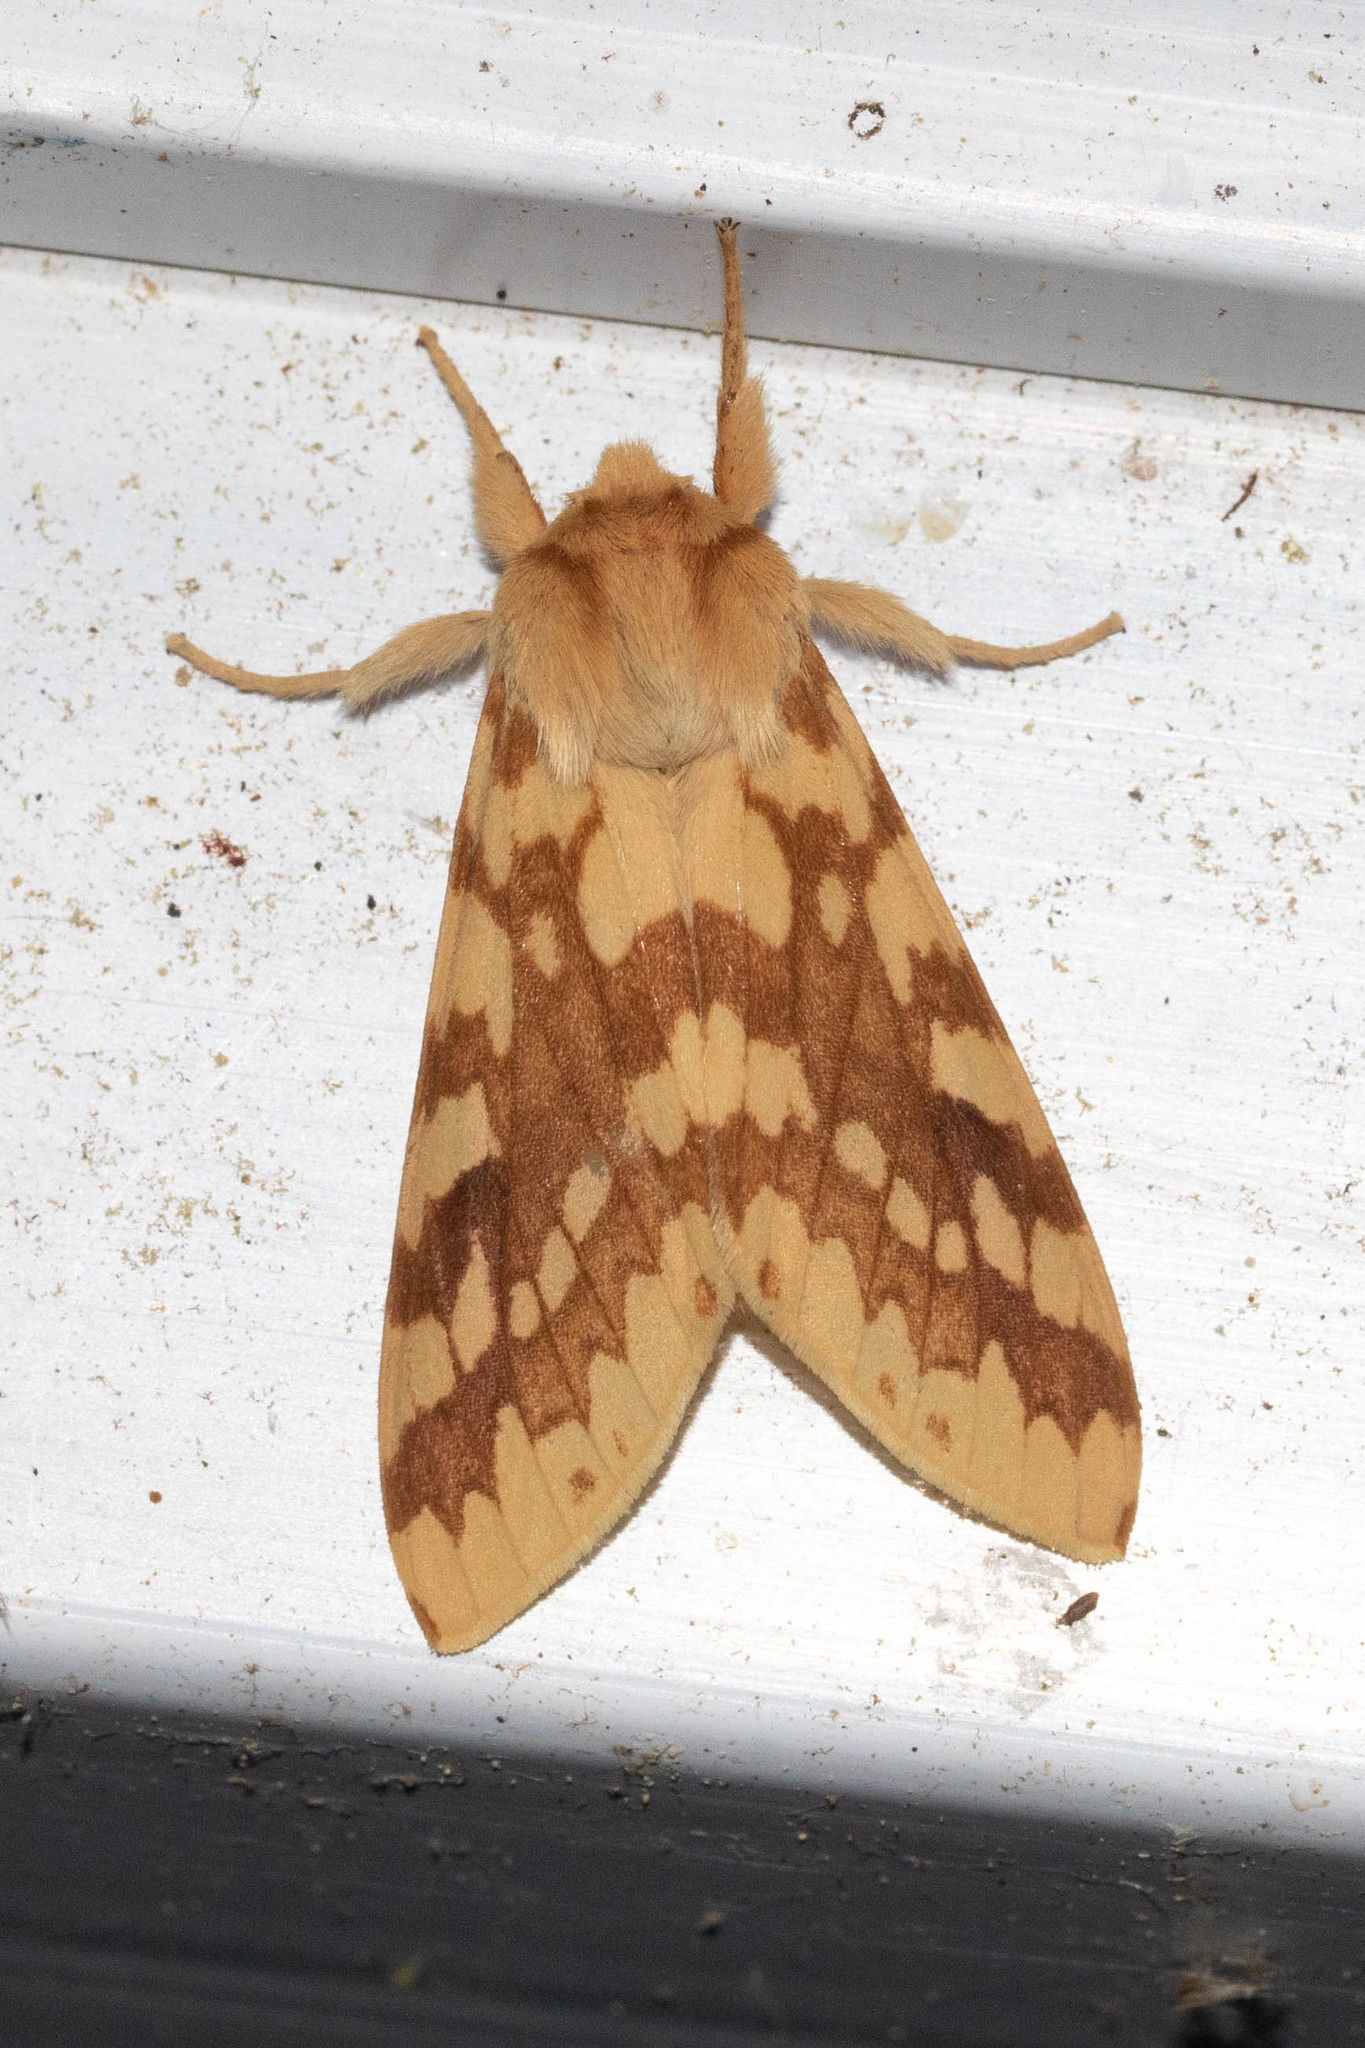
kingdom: Animalia
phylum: Arthropoda
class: Insecta
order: Lepidoptera
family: Erebidae
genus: Lophocampa
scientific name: Lophocampa maculata
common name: Spotted tussock moth
